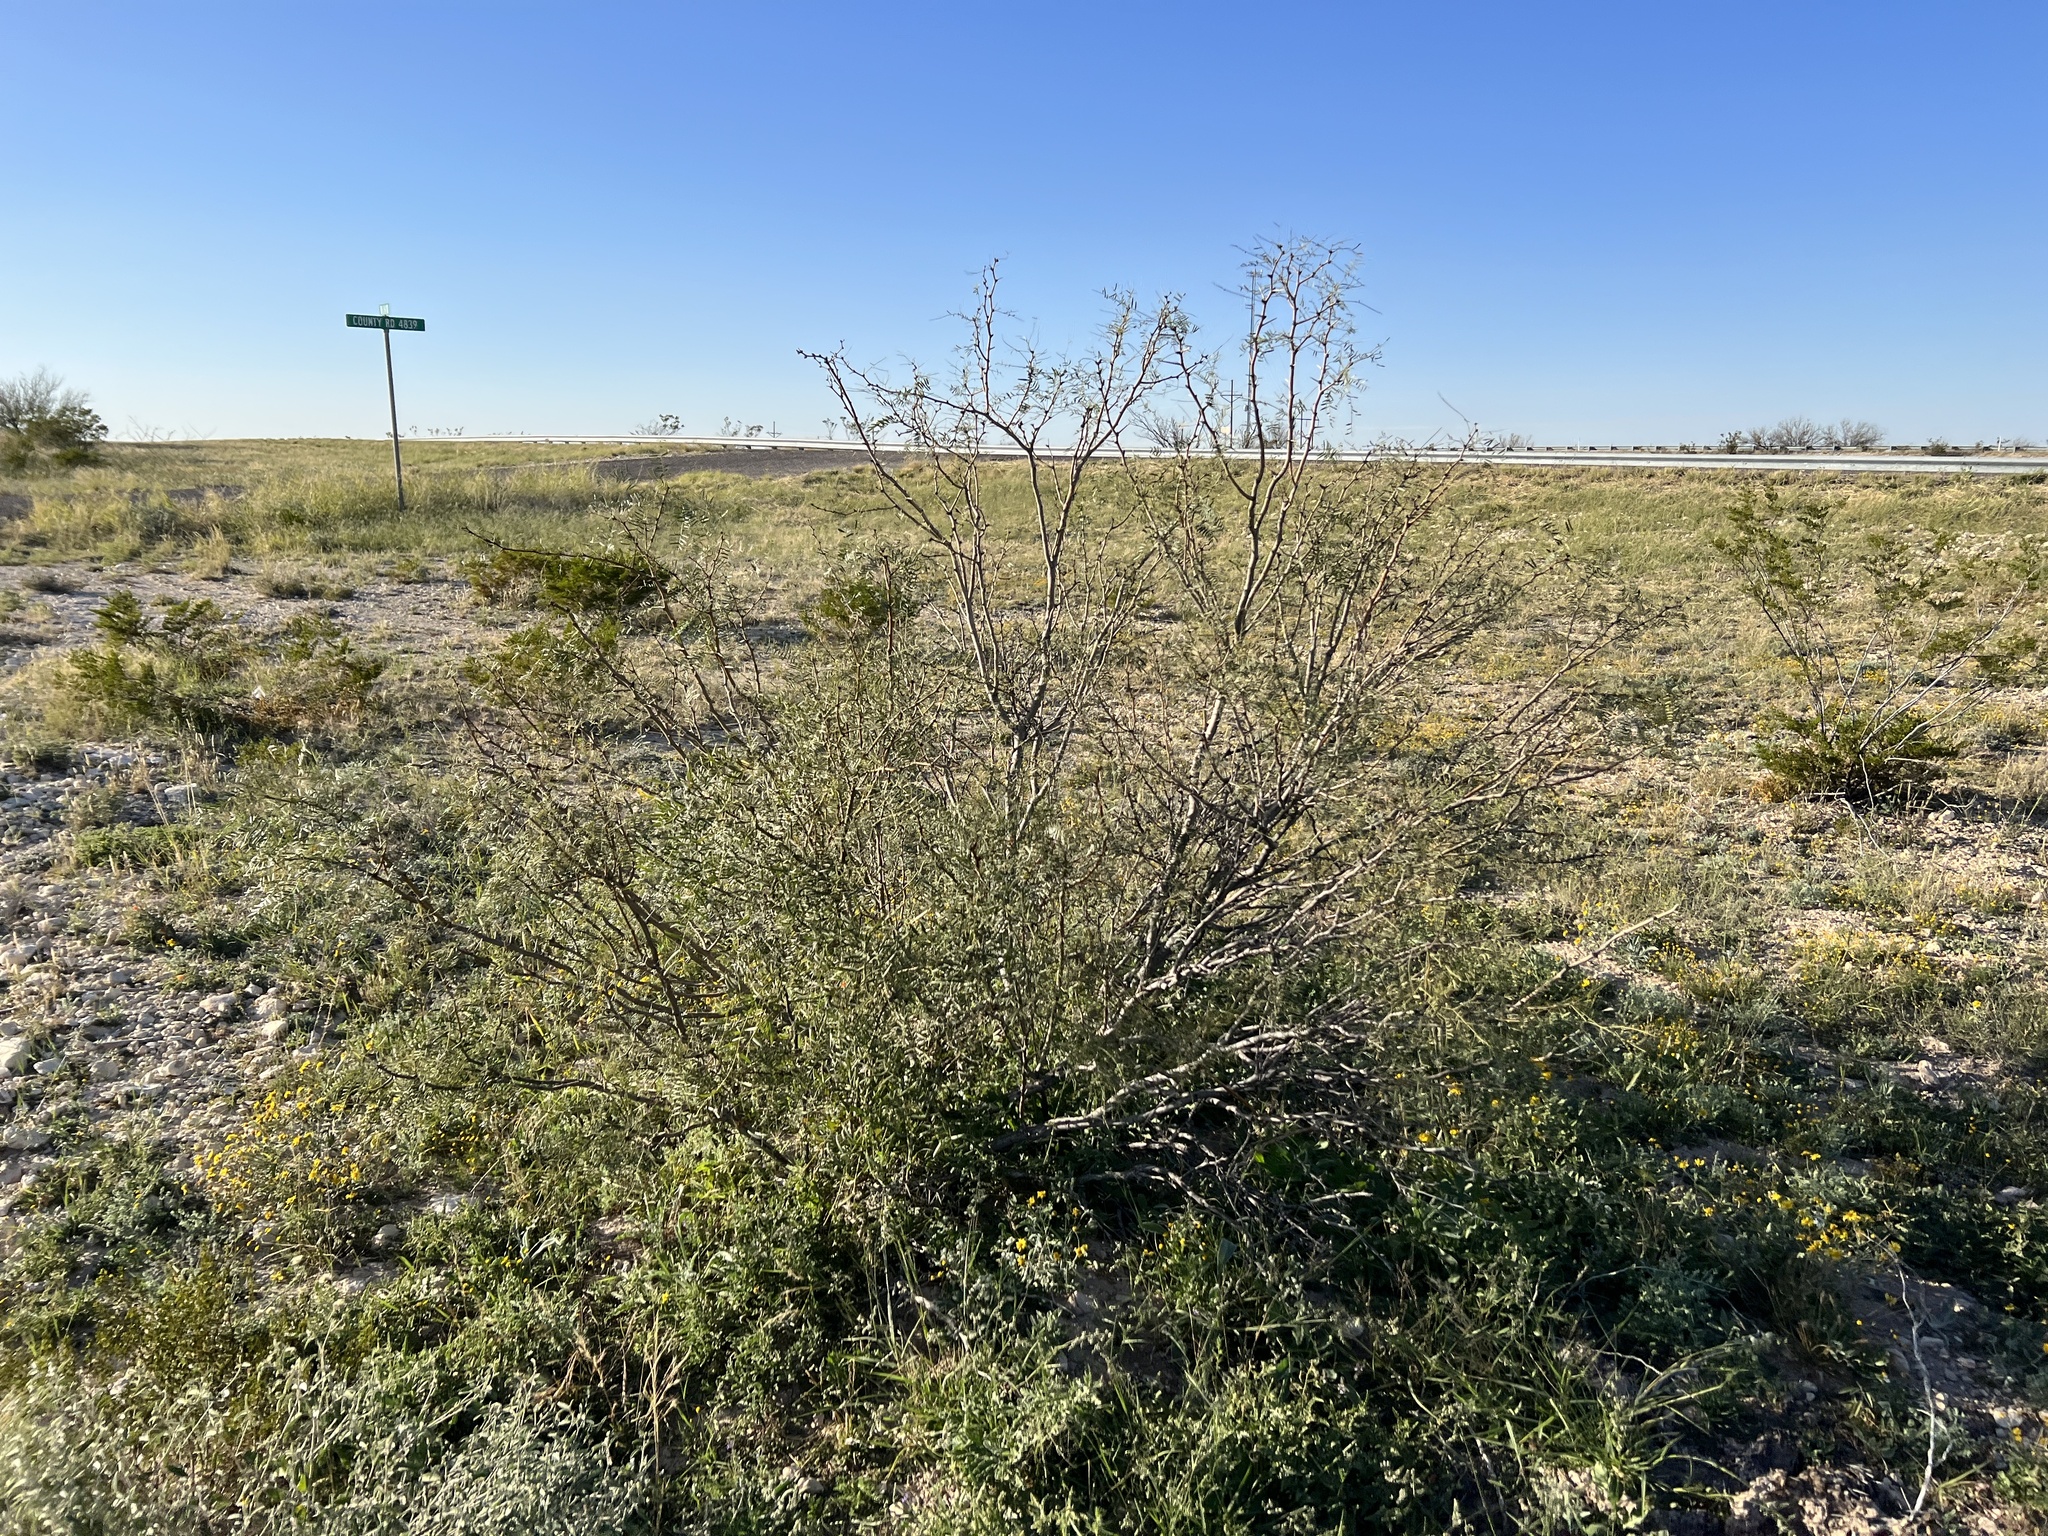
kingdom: Plantae
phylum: Tracheophyta
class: Magnoliopsida
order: Fabales
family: Fabaceae
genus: Prosopis
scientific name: Prosopis pubescens
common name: Screw-bean
